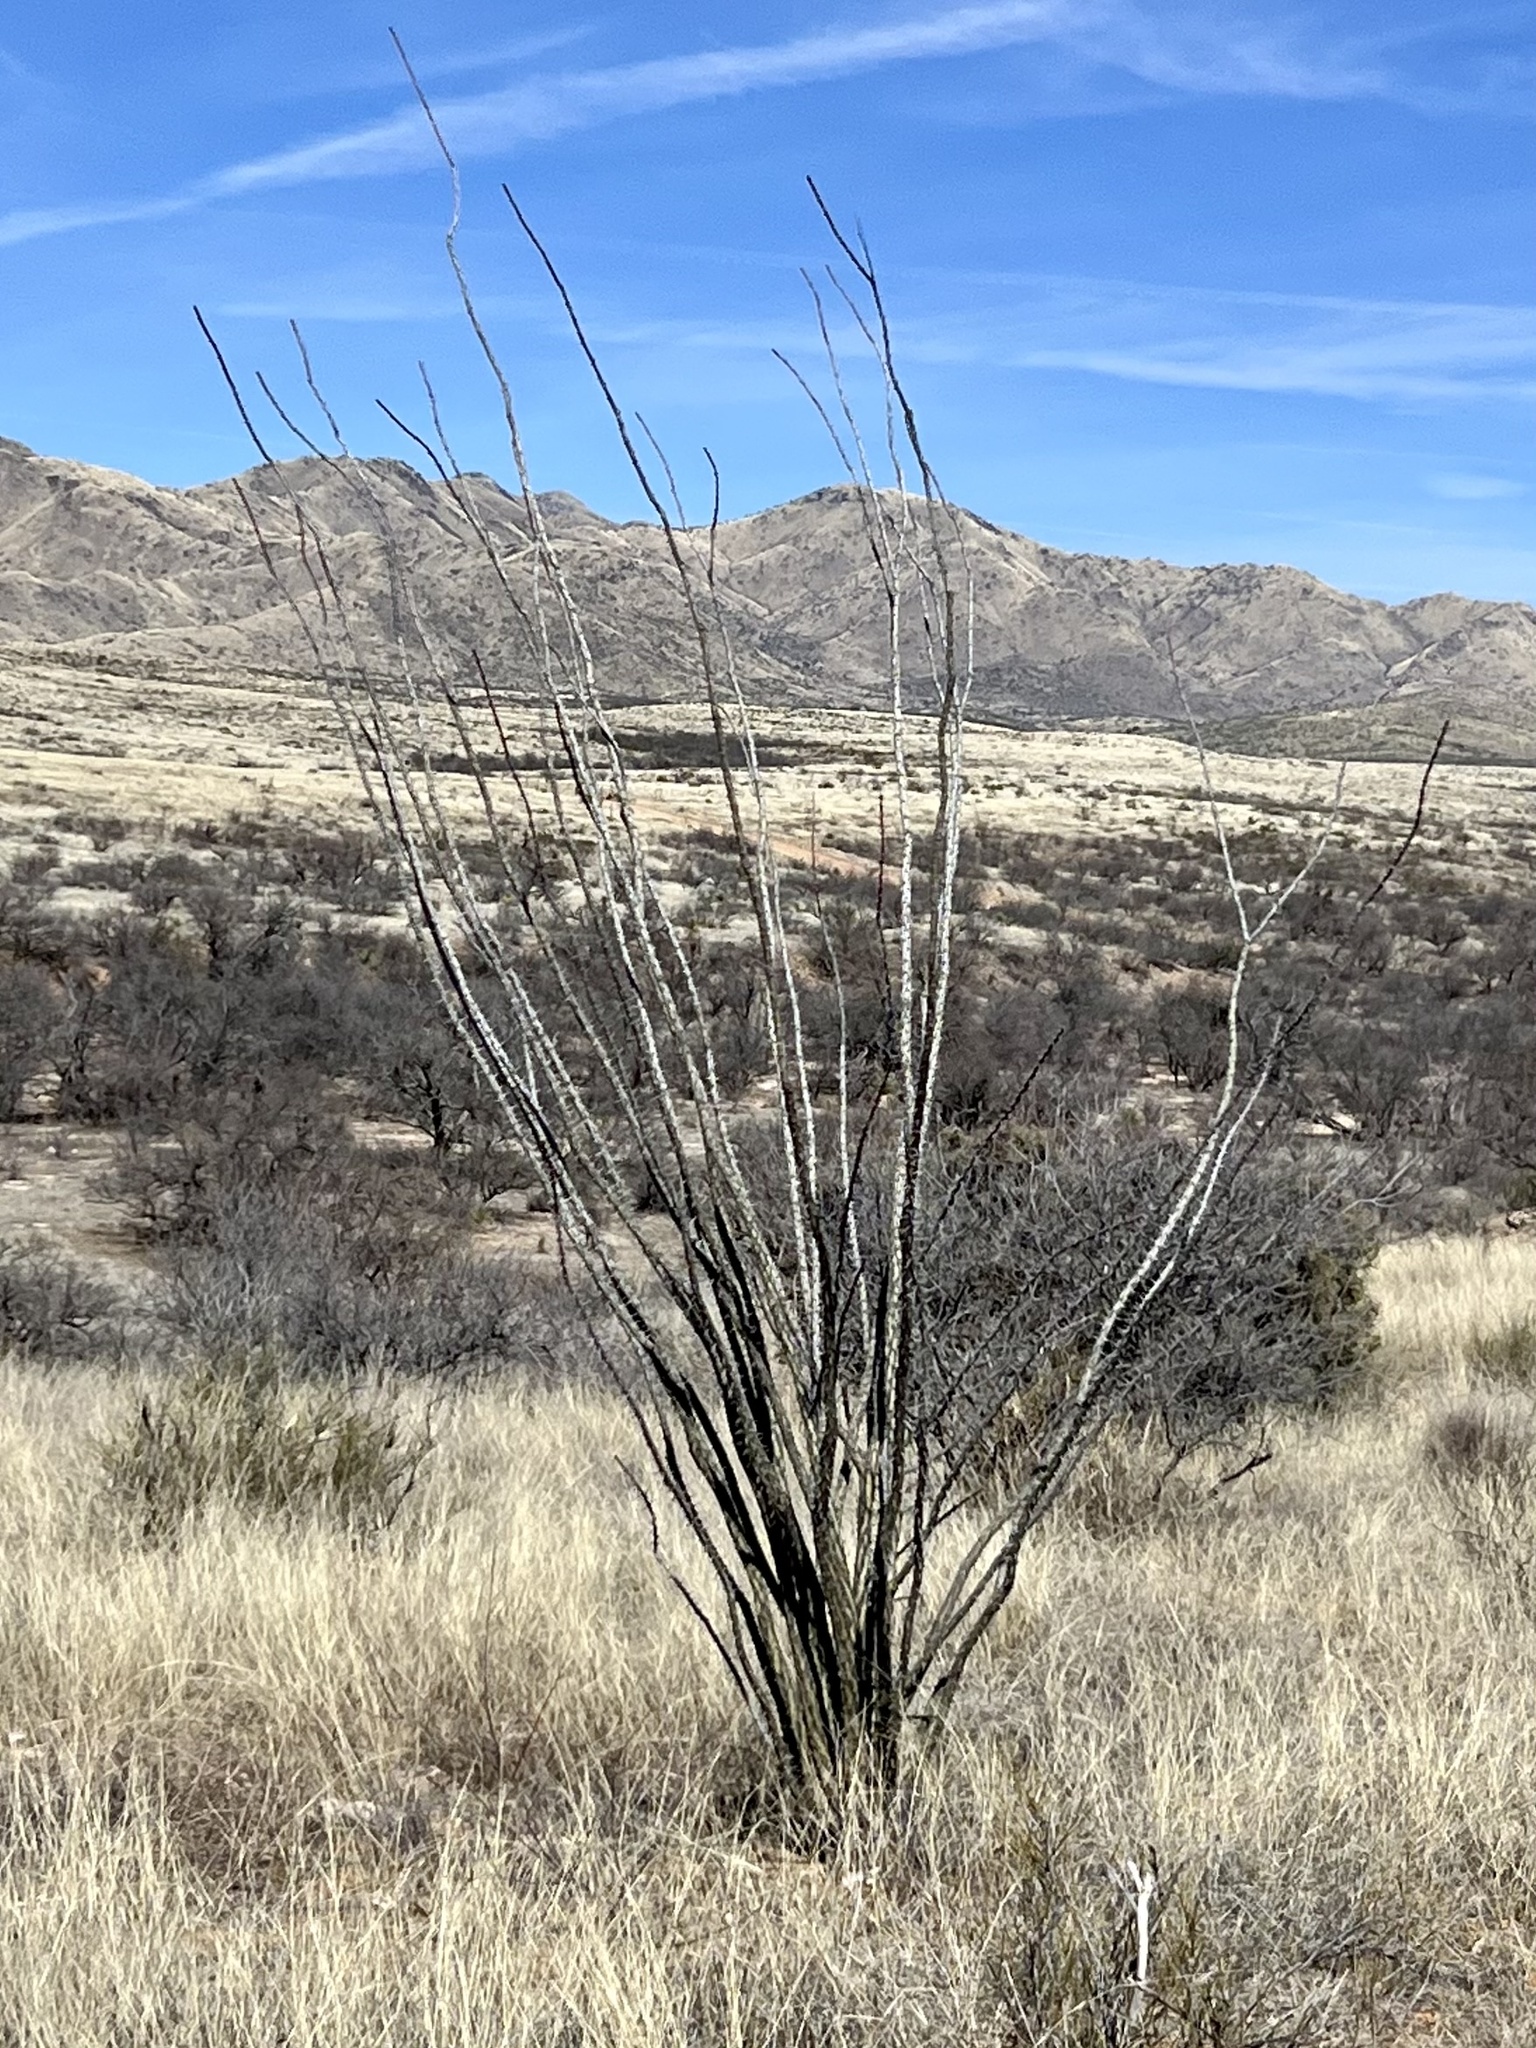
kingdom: Plantae
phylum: Tracheophyta
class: Magnoliopsida
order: Ericales
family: Fouquieriaceae
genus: Fouquieria
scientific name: Fouquieria splendens
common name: Vine-cactus
